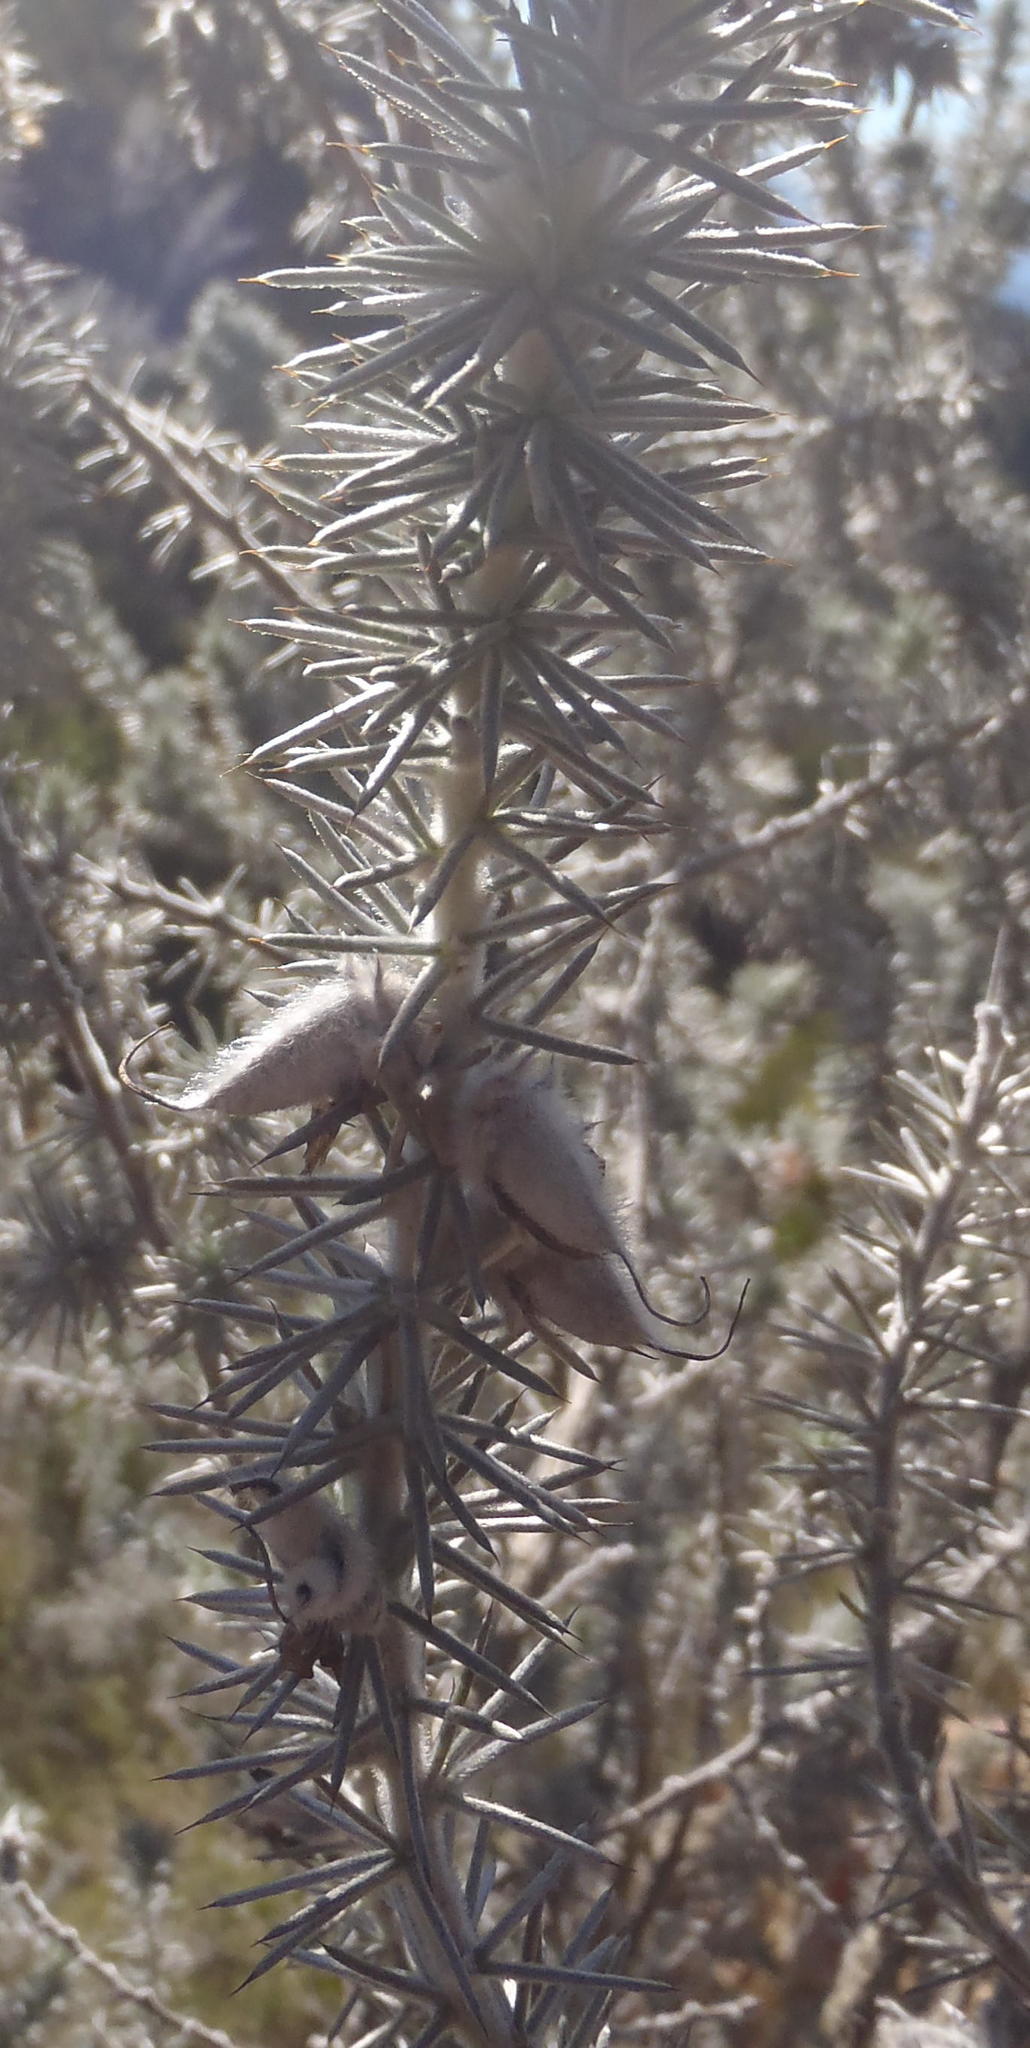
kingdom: Plantae
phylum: Tracheophyta
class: Magnoliopsida
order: Fabales
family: Fabaceae
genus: Aspalathus
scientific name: Aspalathus hystrix
